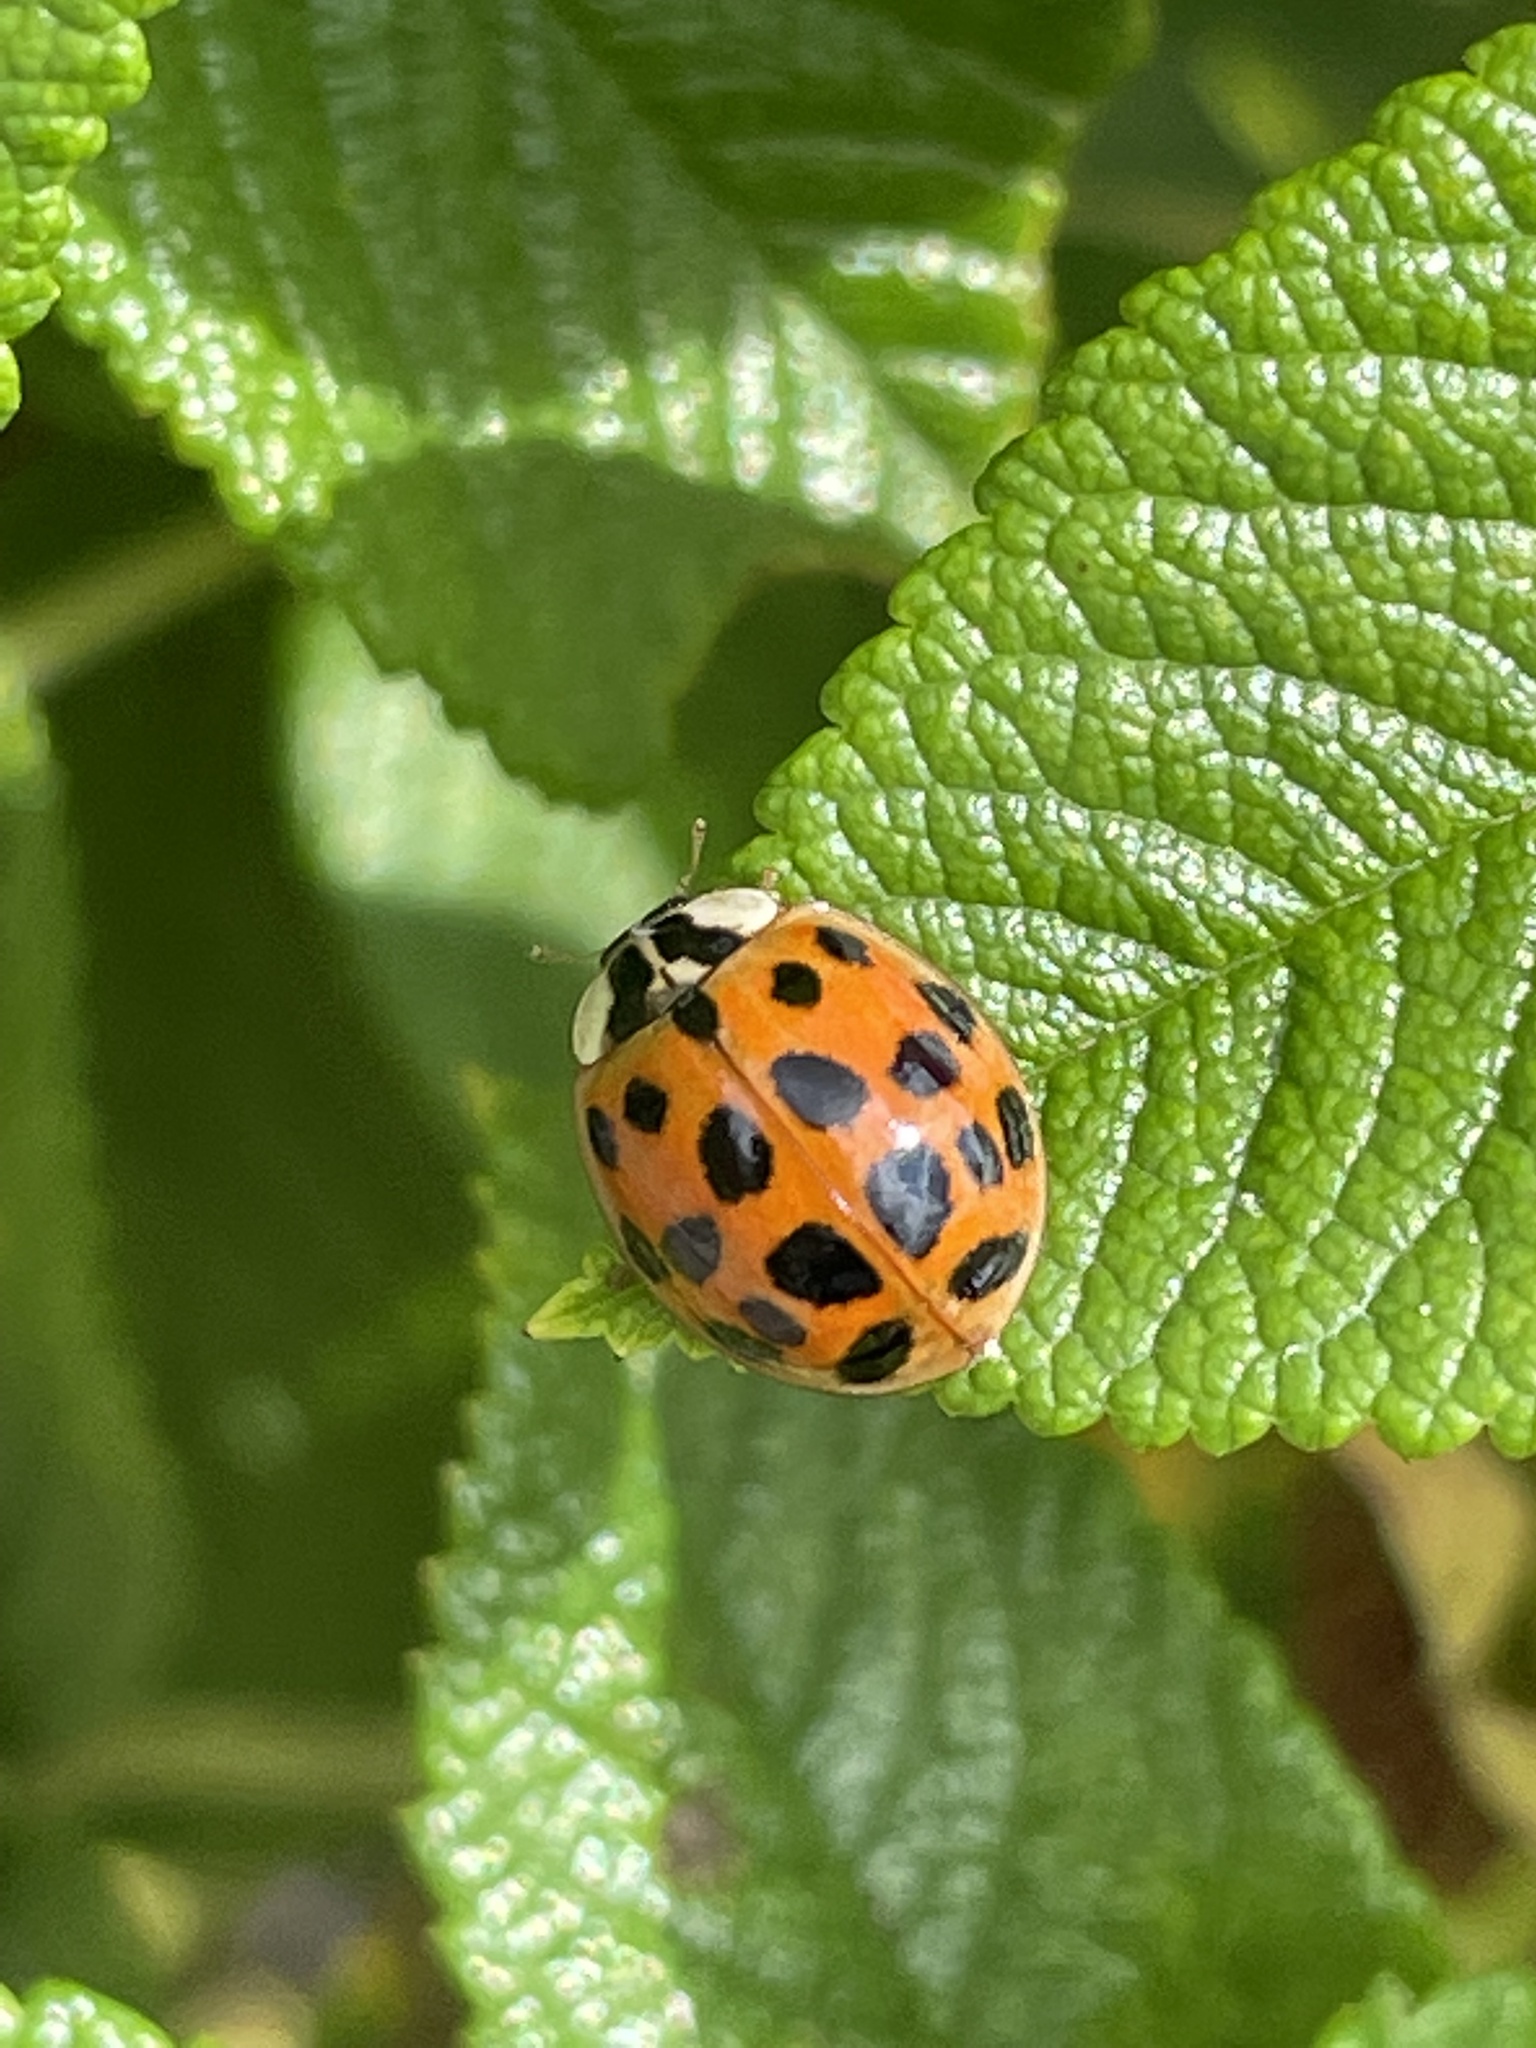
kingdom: Animalia
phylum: Arthropoda
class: Insecta
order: Coleoptera
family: Coccinellidae
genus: Harmonia
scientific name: Harmonia axyridis
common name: Harlequin ladybird
